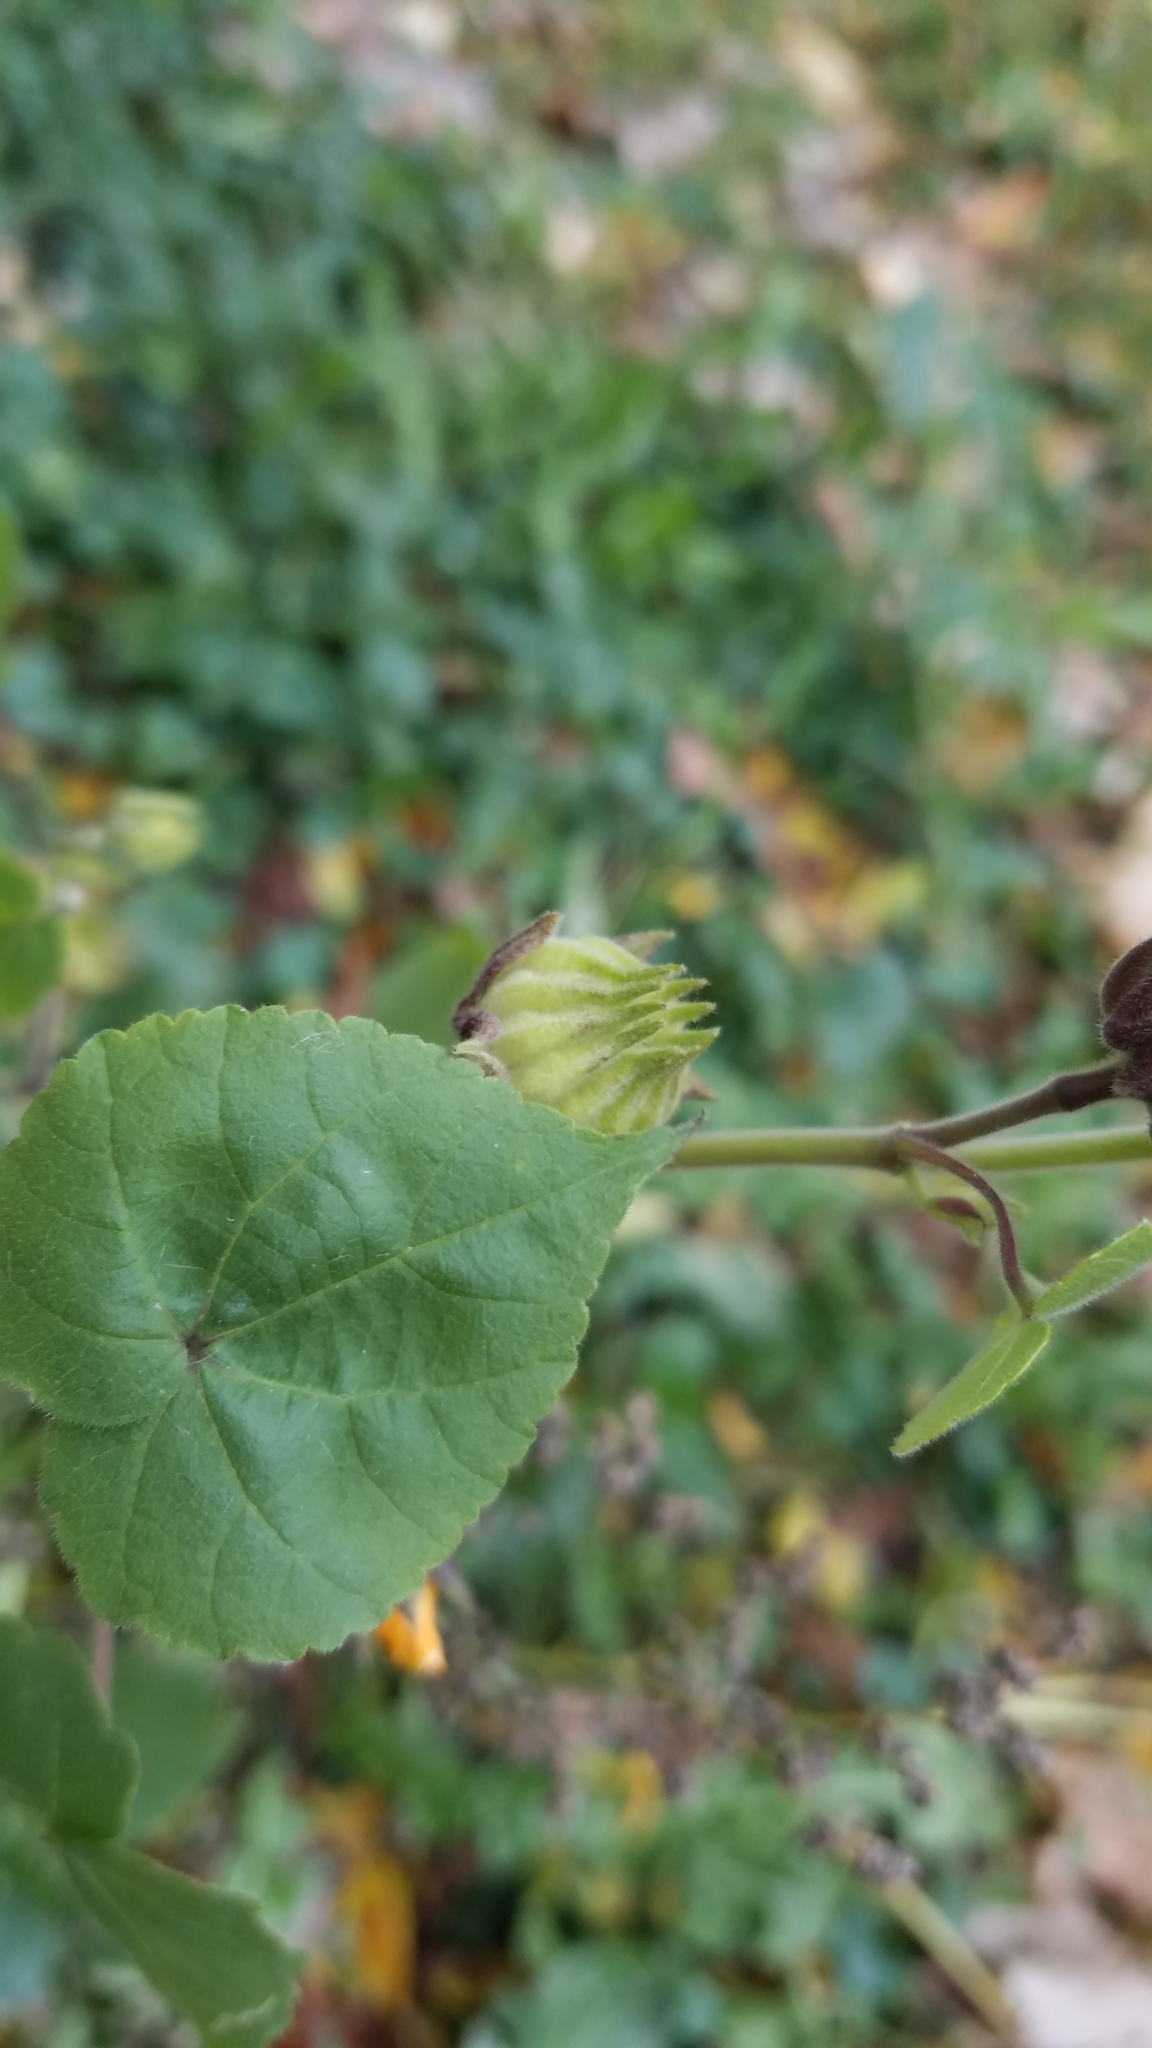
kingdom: Plantae
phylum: Tracheophyta
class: Magnoliopsida
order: Malvales
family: Malvaceae
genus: Abutilon
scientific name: Abutilon theophrasti
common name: Velvetleaf
